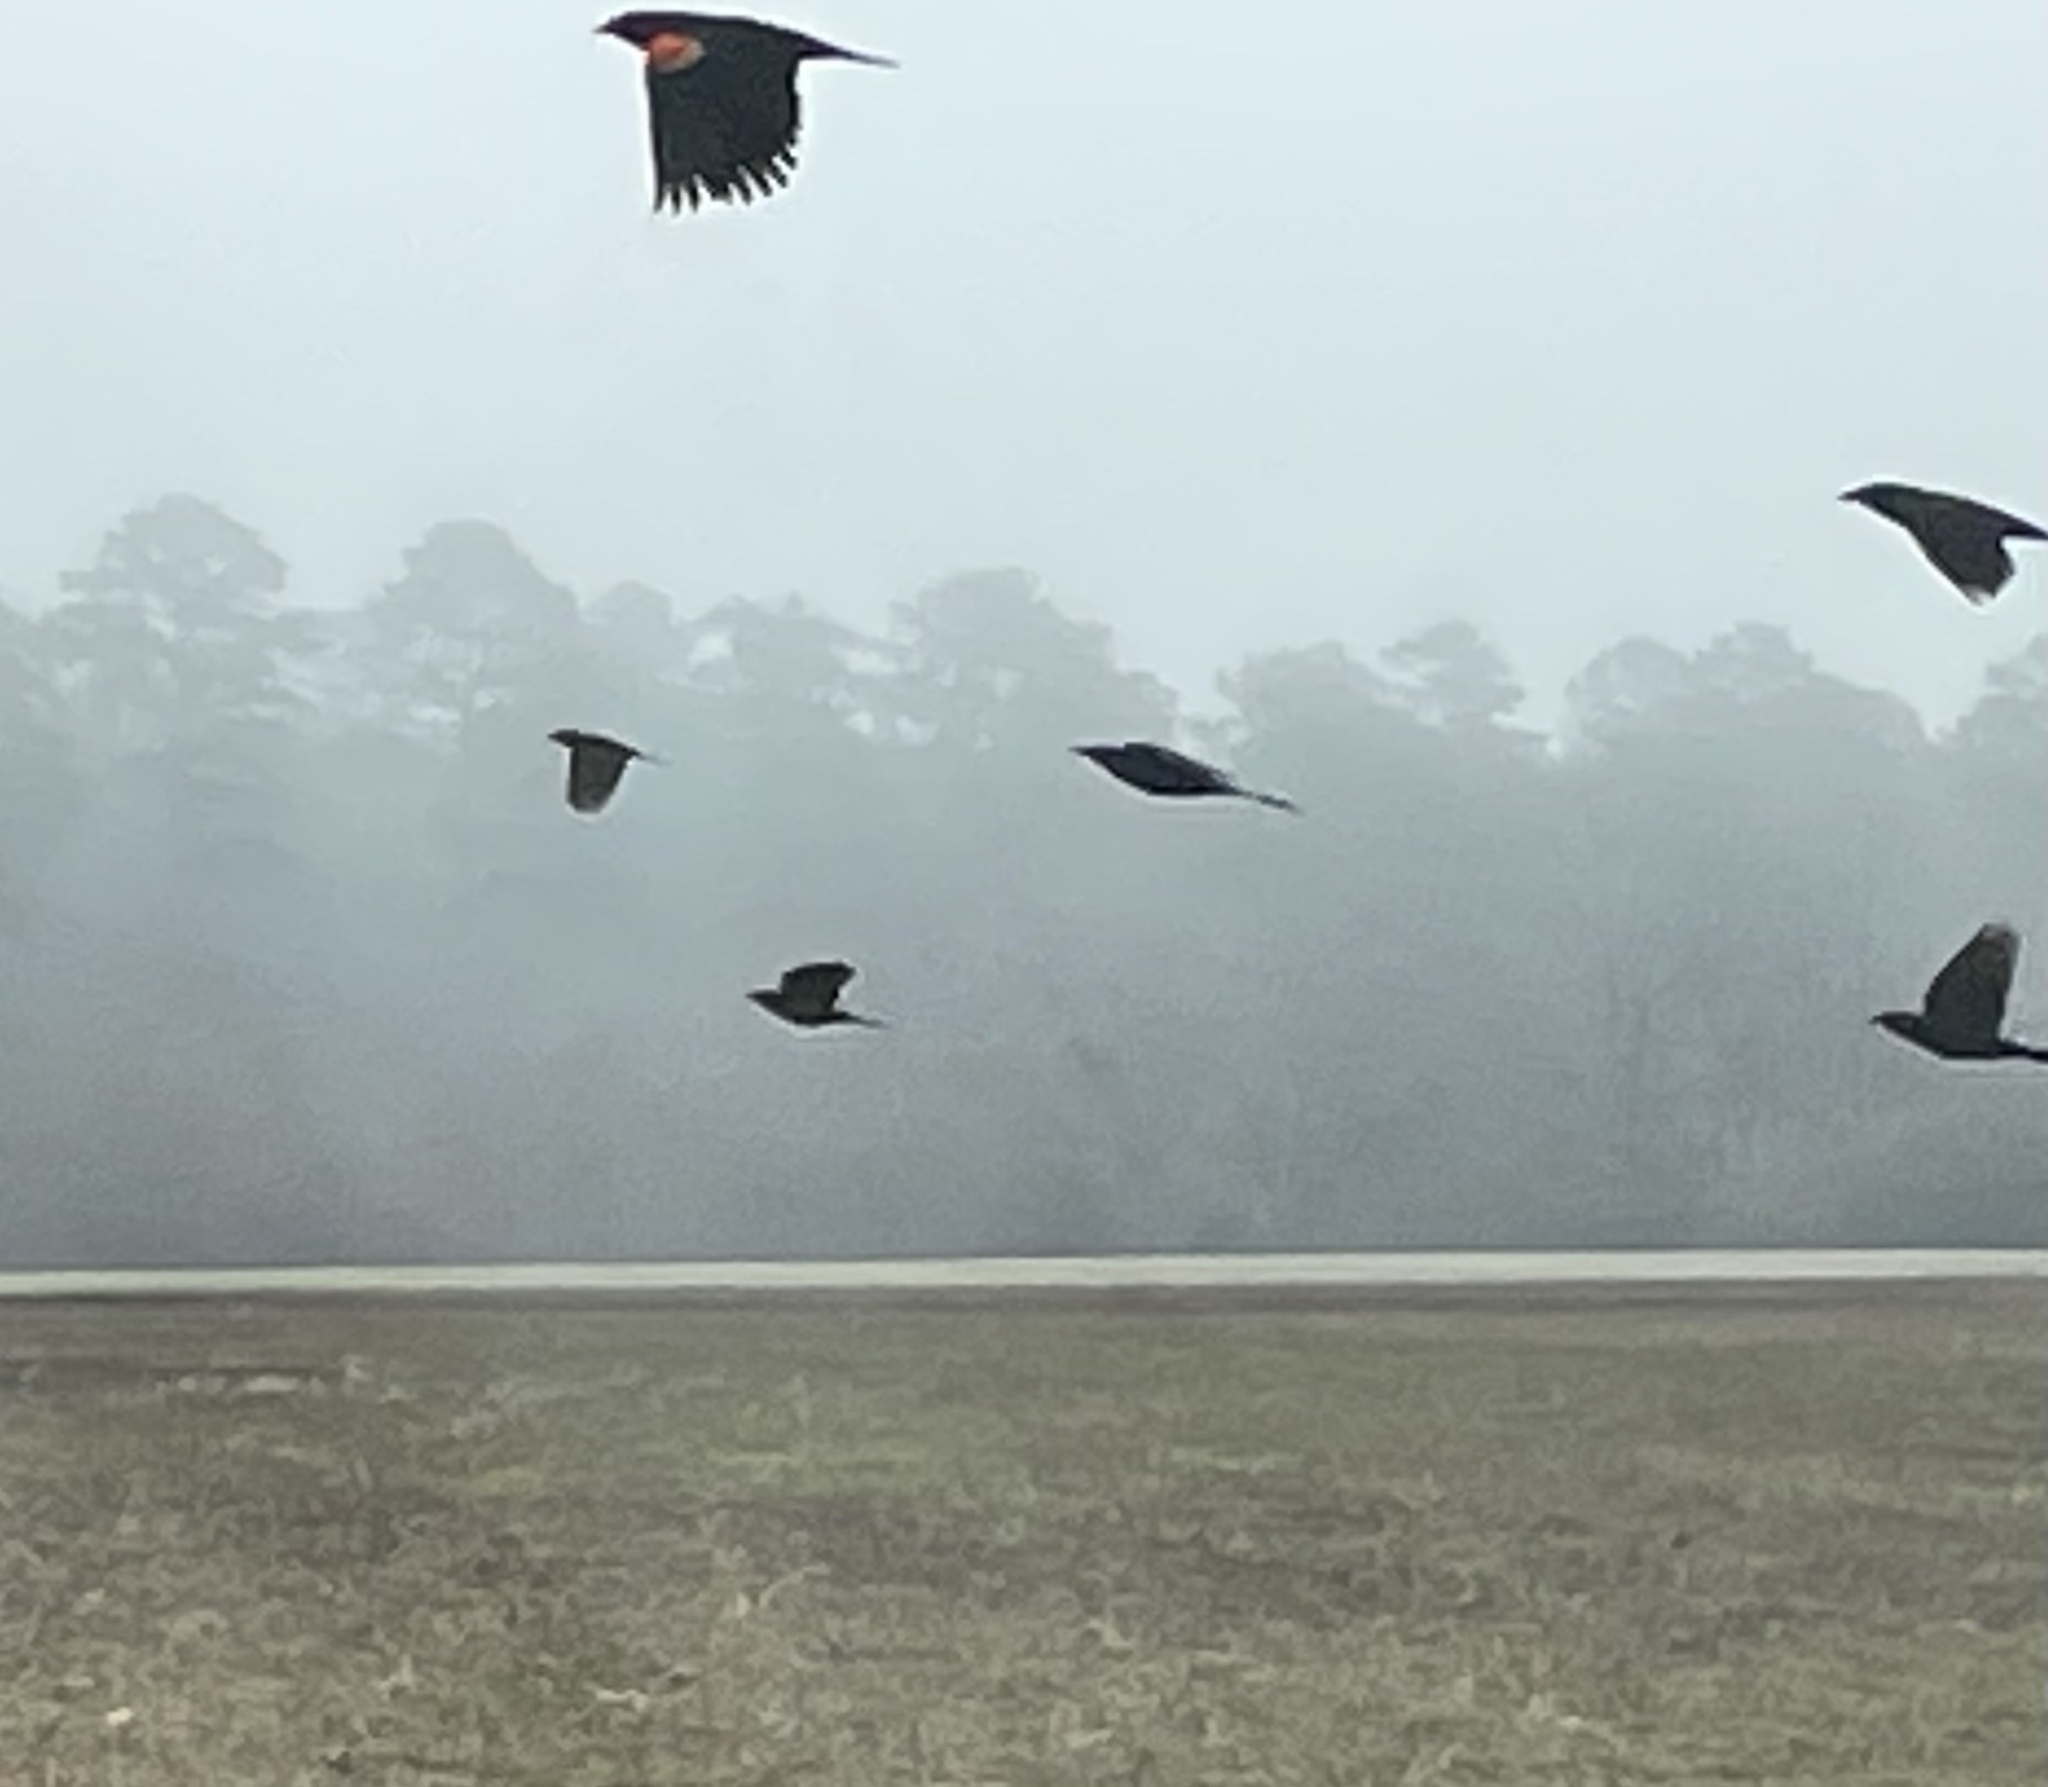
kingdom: Animalia
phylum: Chordata
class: Aves
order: Passeriformes
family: Icteridae
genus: Agelaius
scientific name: Agelaius phoeniceus
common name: Red-winged blackbird
